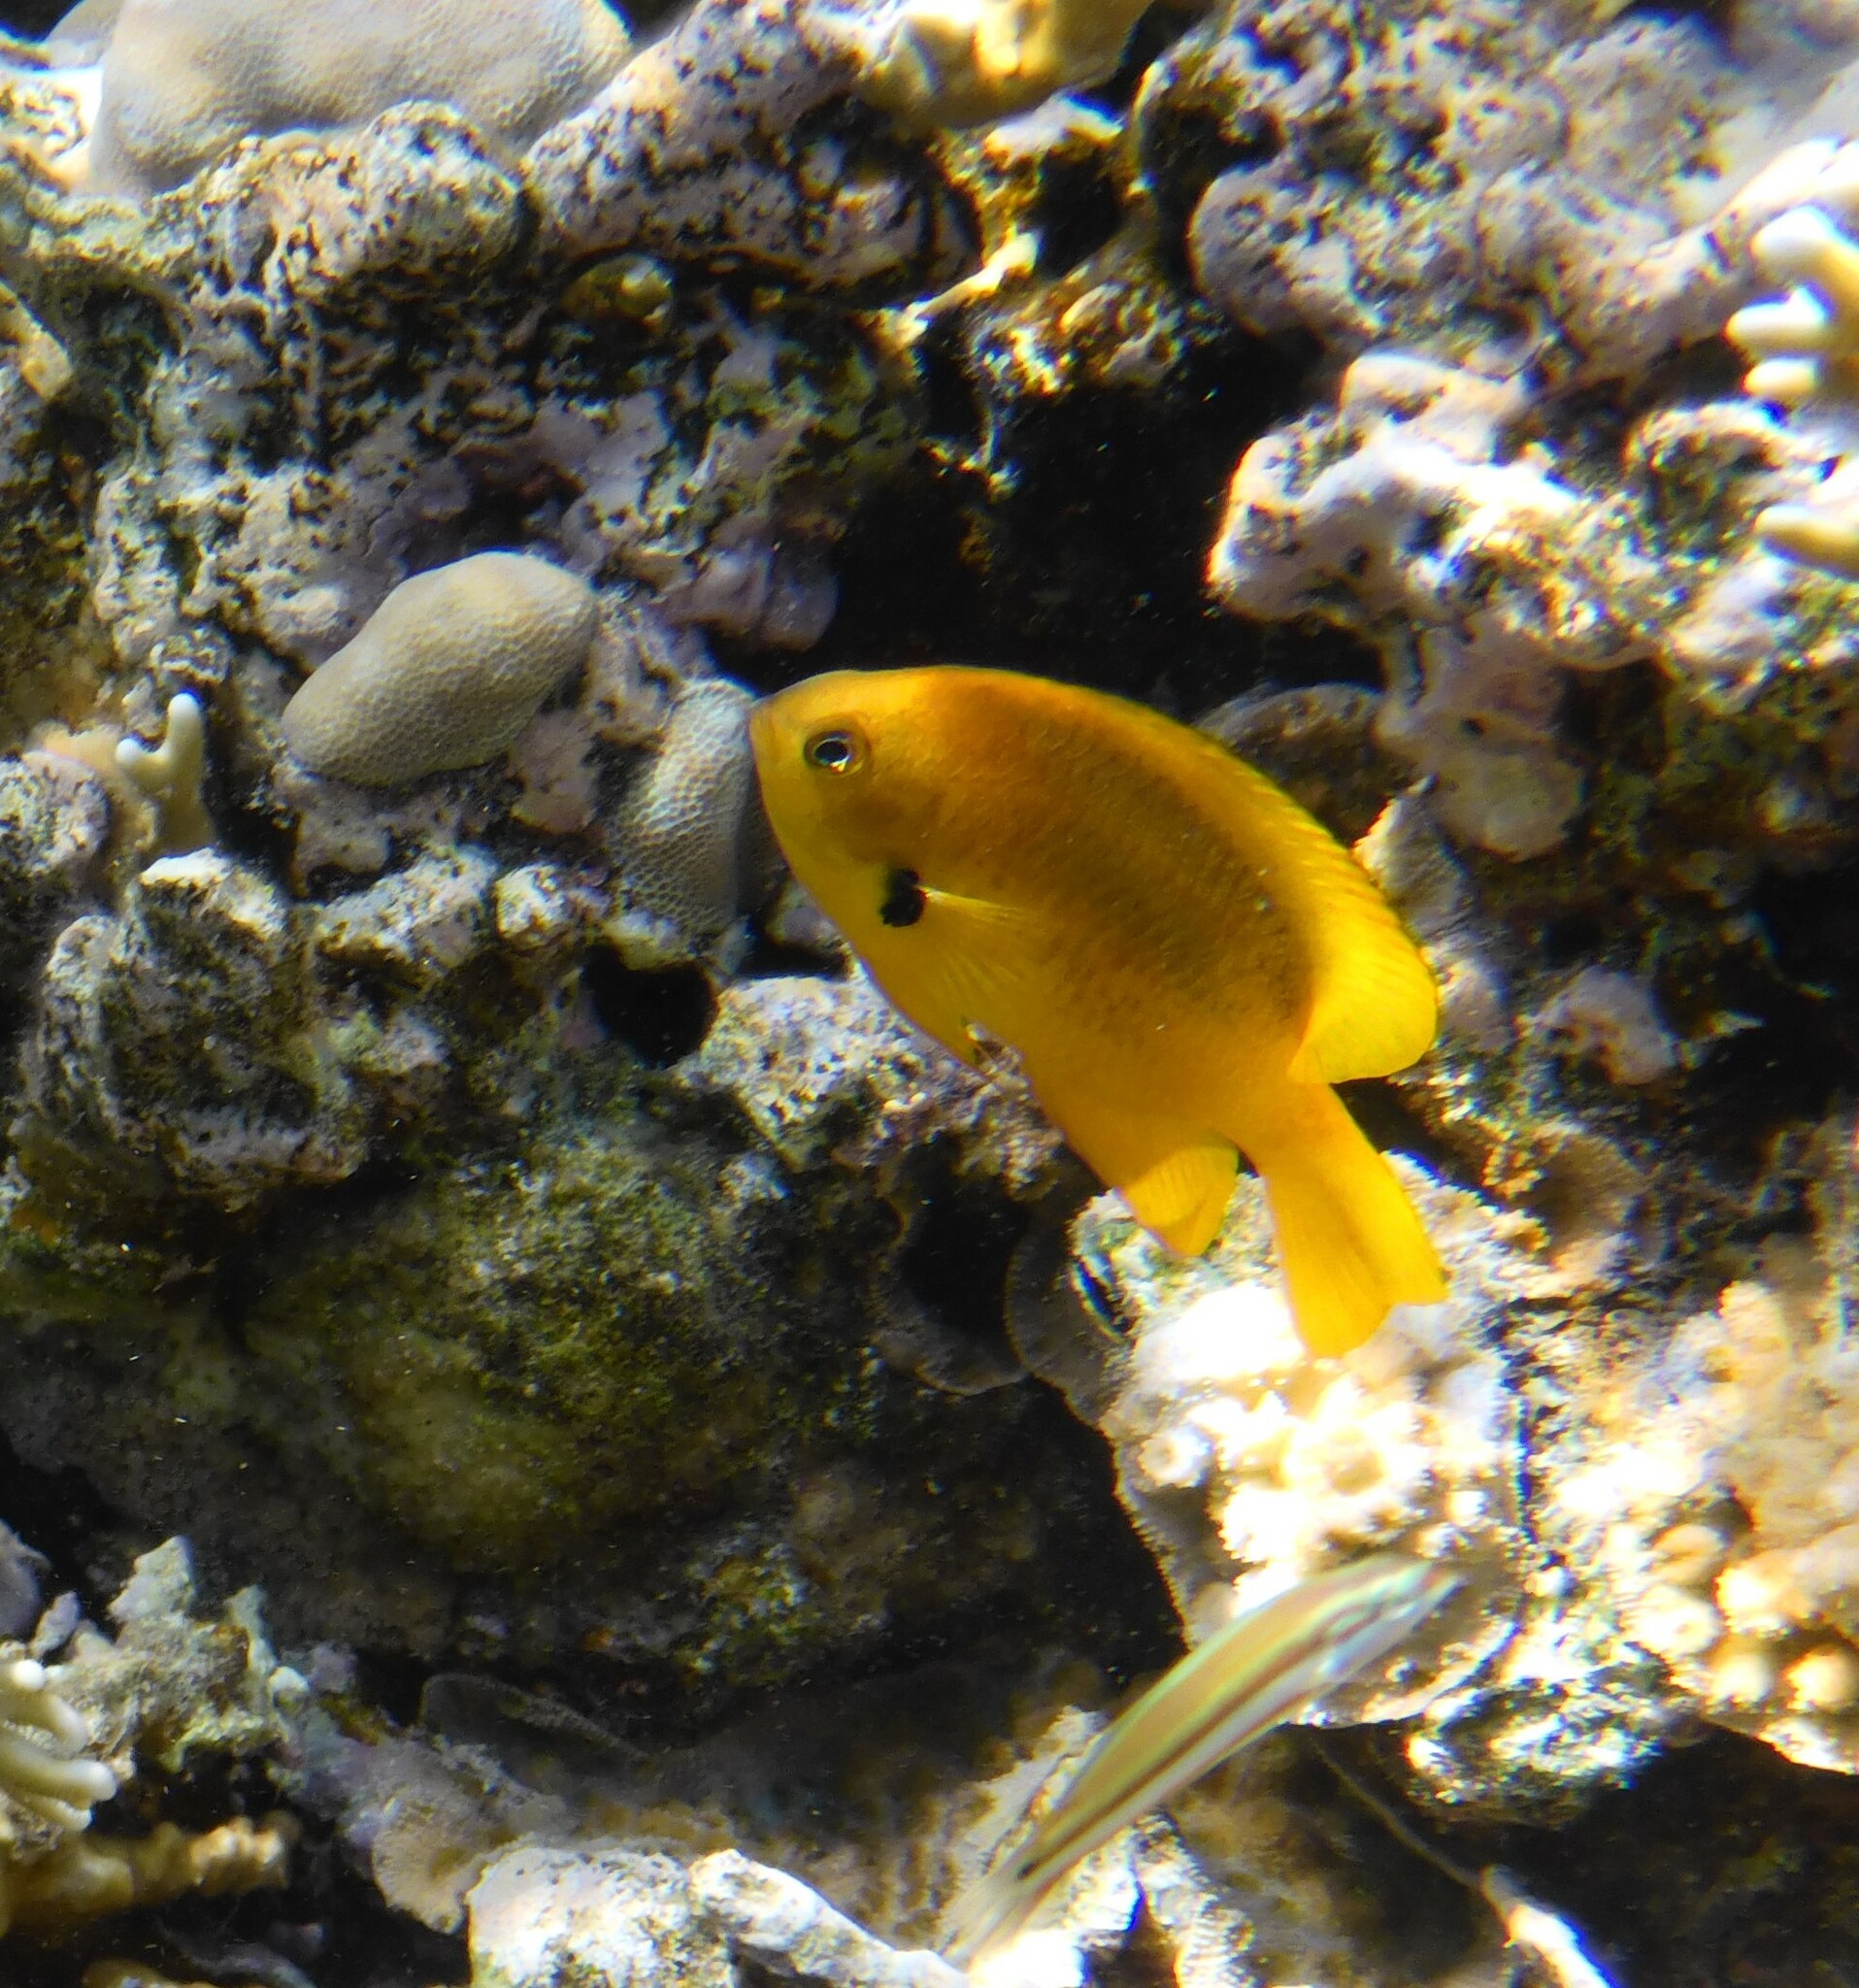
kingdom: Animalia
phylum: Chordata
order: Perciformes
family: Pomacentridae
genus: Pomacentrus
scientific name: Pomacentrus sulfureus
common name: Sulfur damsel
